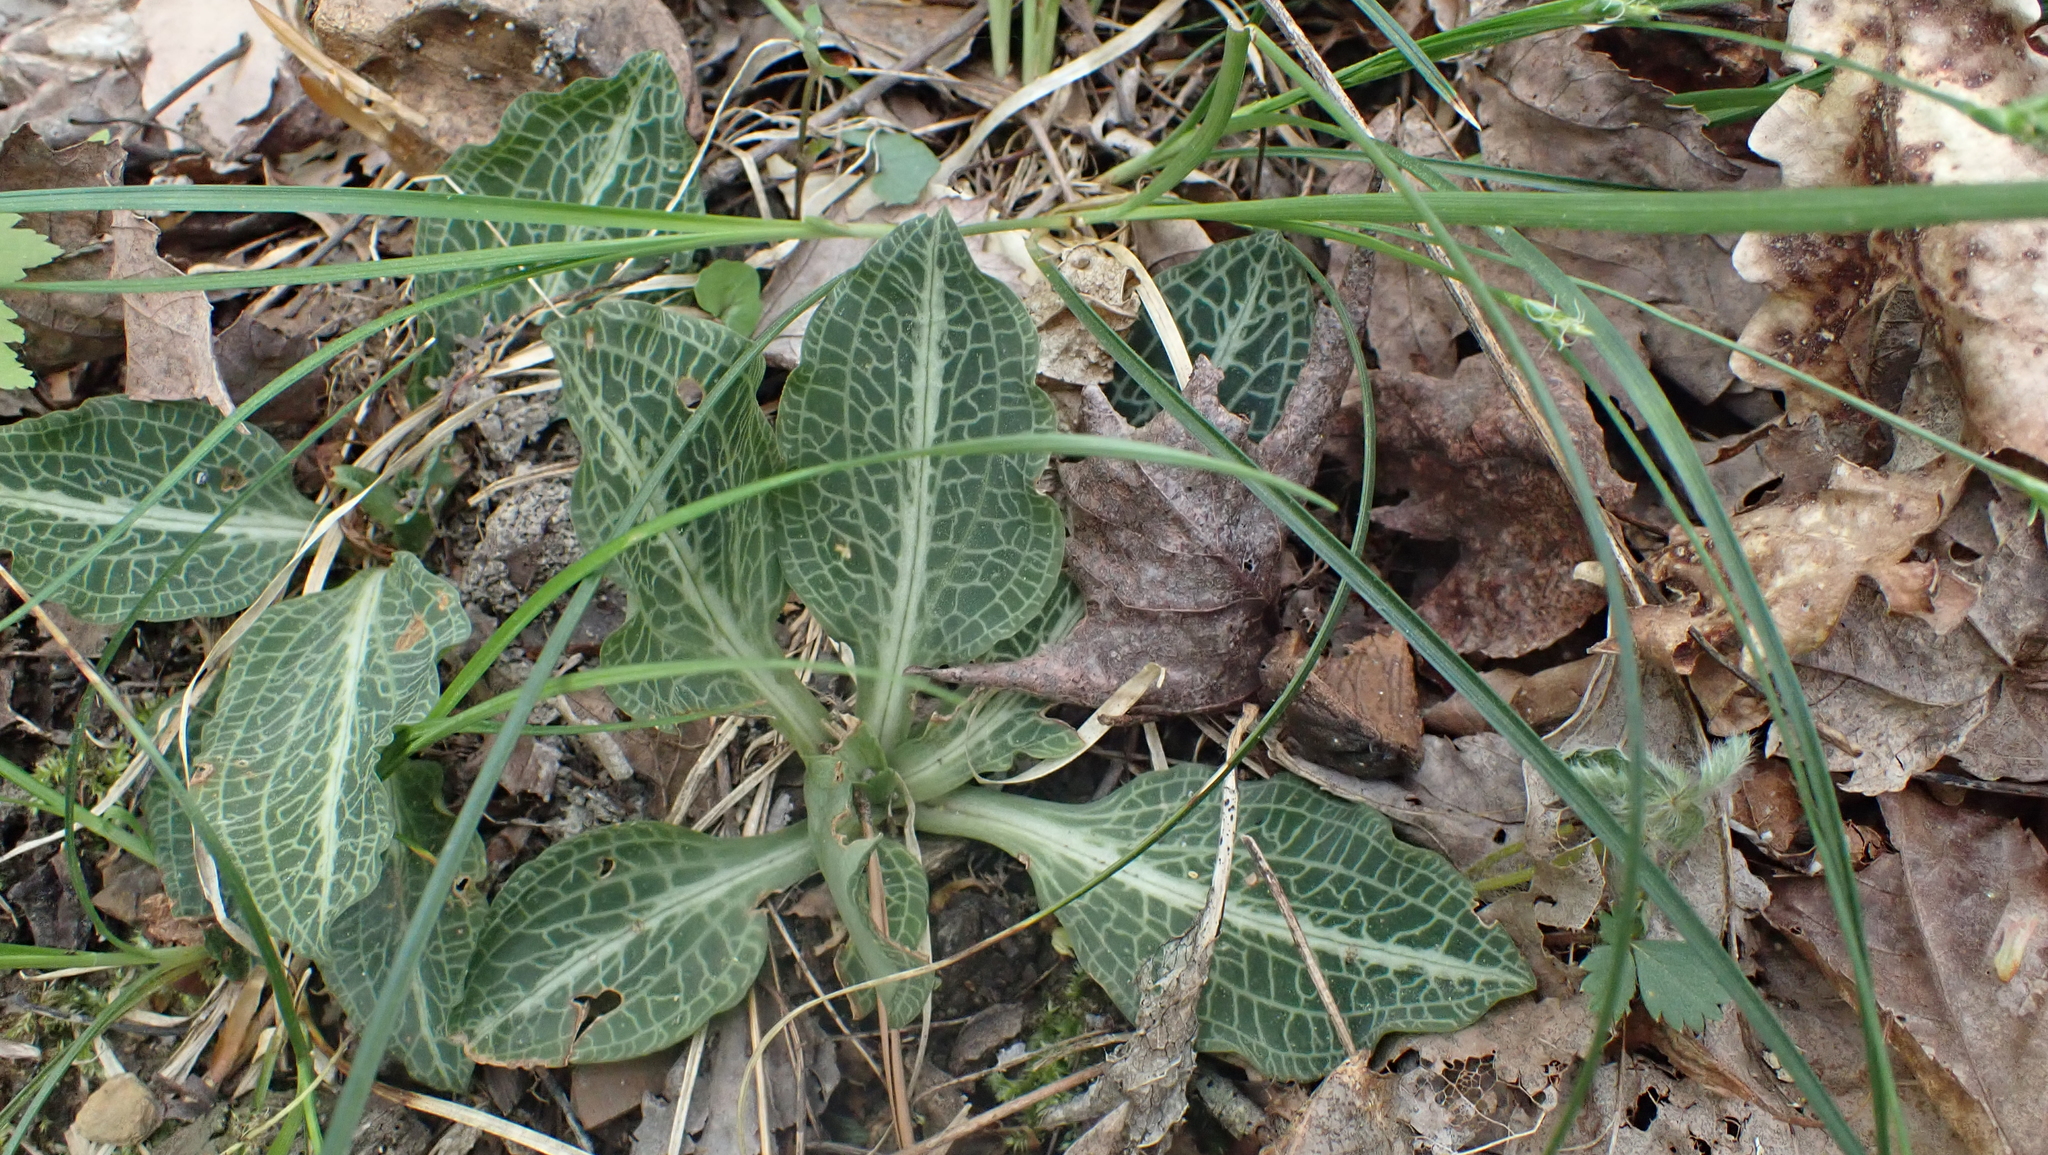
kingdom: Plantae
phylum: Tracheophyta
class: Liliopsida
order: Asparagales
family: Orchidaceae
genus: Goodyera
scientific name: Goodyera pubescens
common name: Downy rattlesnake-plantain
